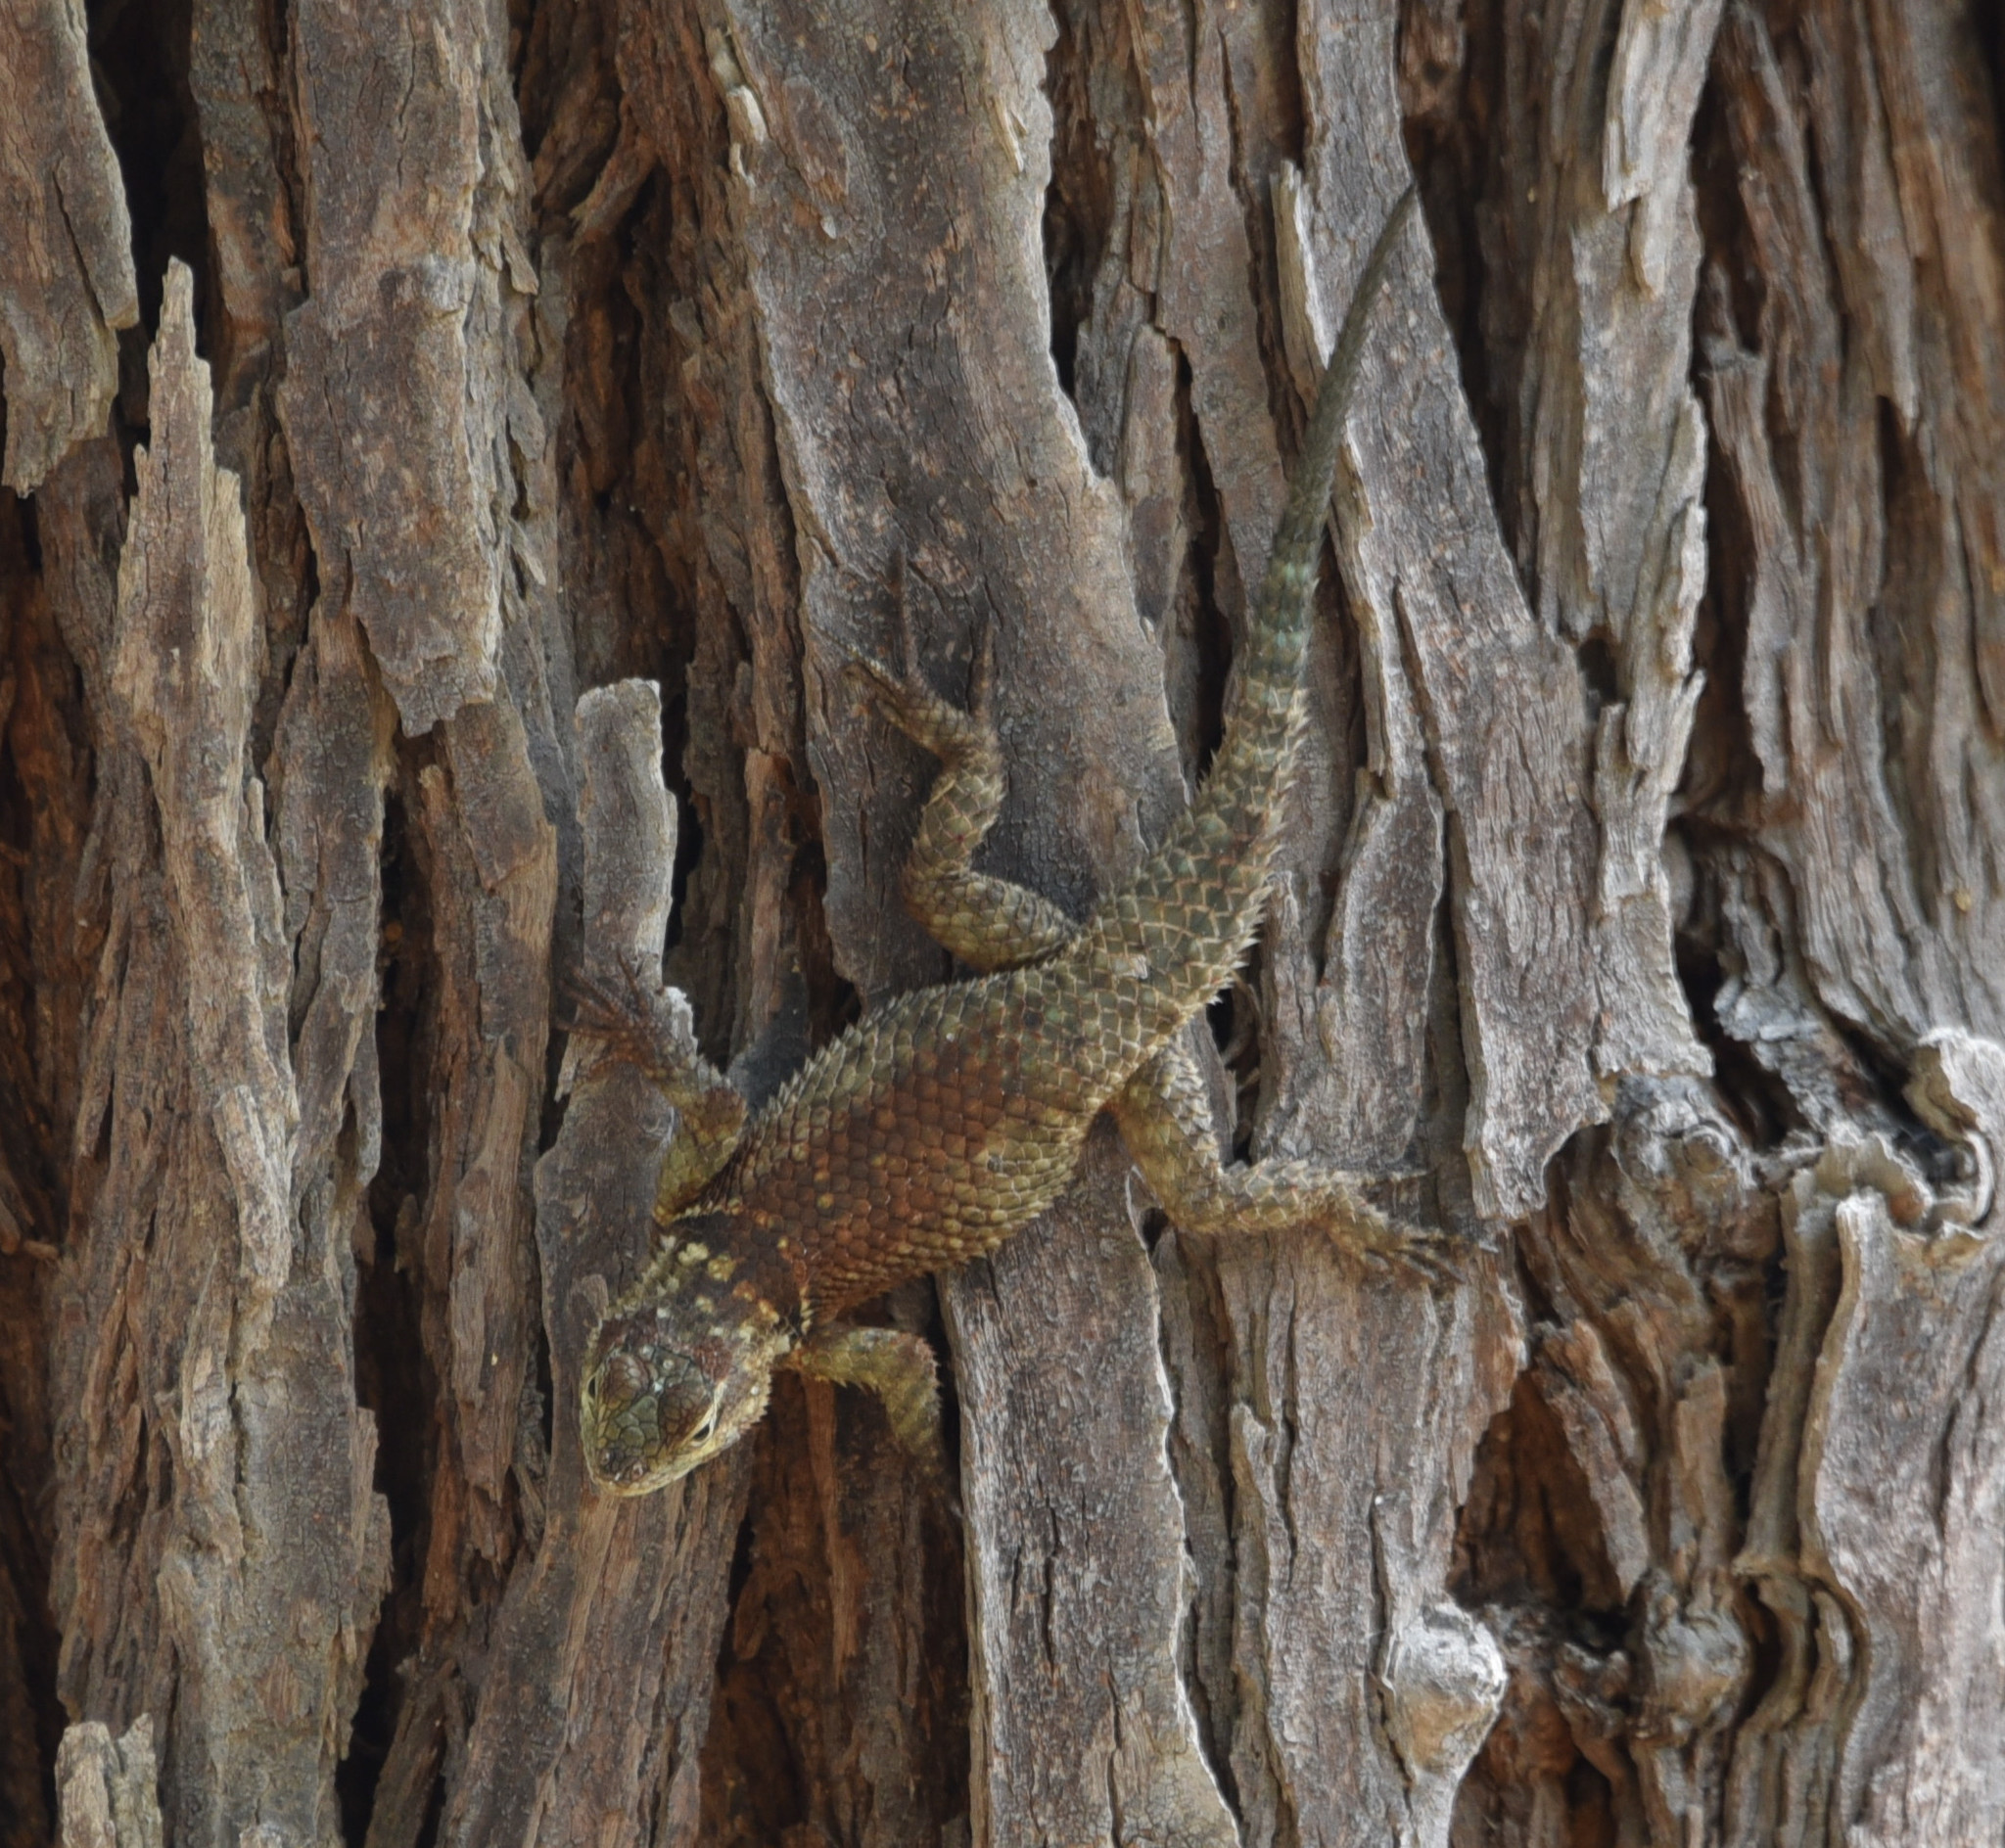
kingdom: Animalia
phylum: Chordata
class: Squamata
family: Phrynosomatidae
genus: Sceloporus
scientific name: Sceloporus cyanogenys
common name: Blue spiny lizard
